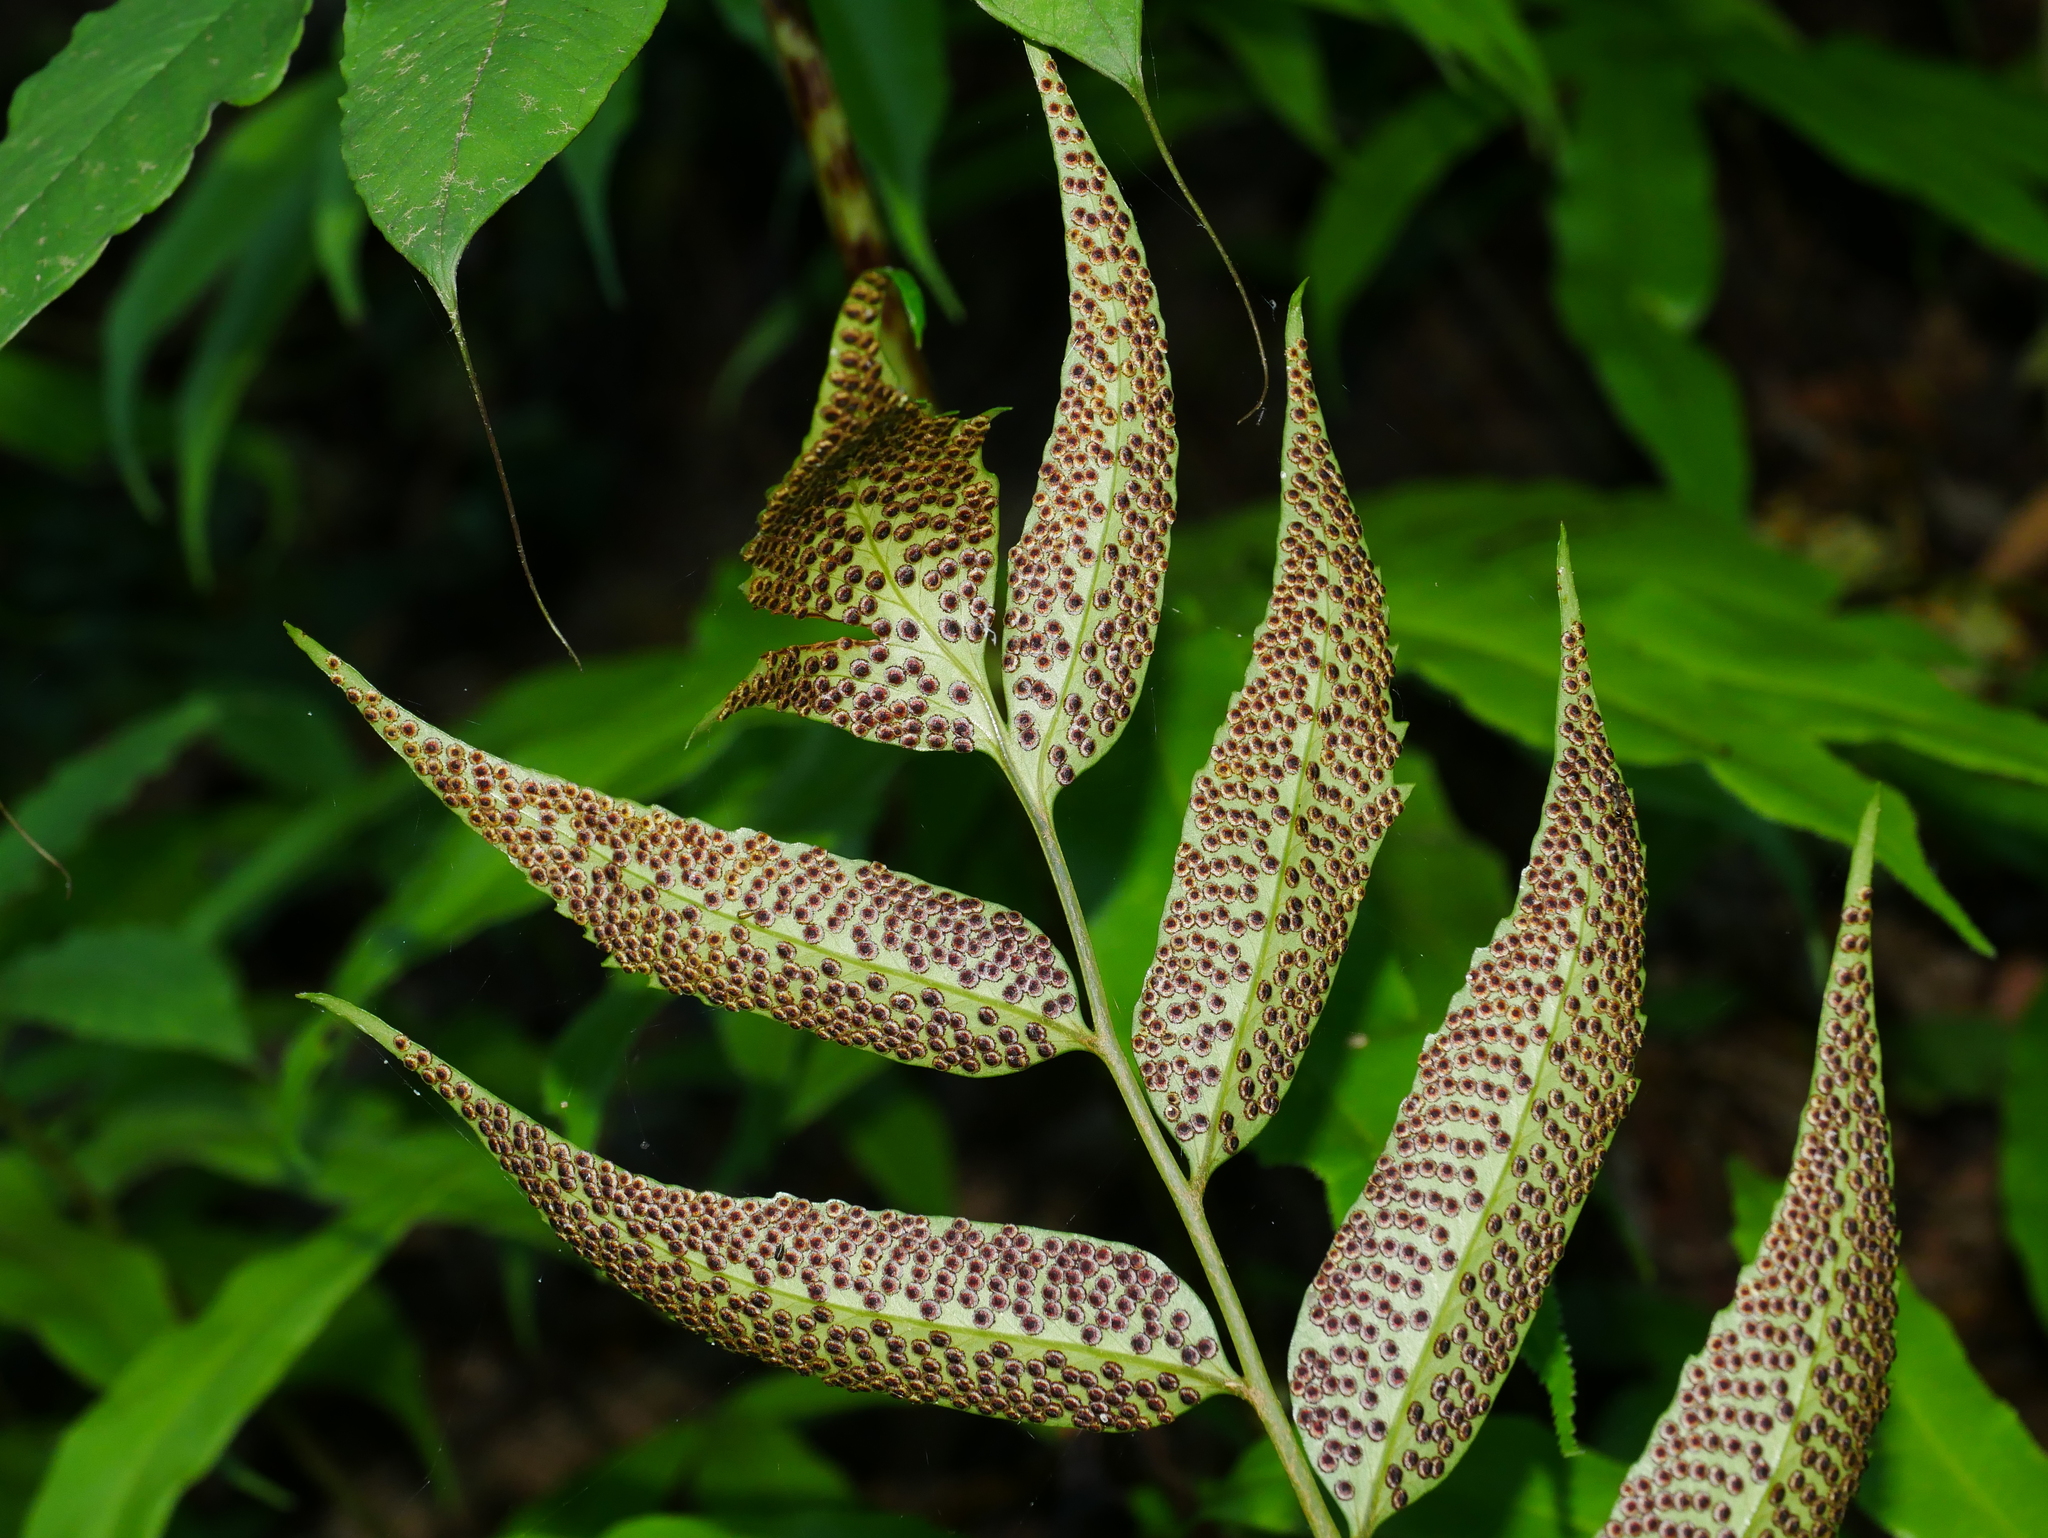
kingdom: Plantae
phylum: Tracheophyta
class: Polypodiopsida
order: Polypodiales
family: Dryopteridaceae
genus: Cyrtomium
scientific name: Cyrtomium devexiscapulae
